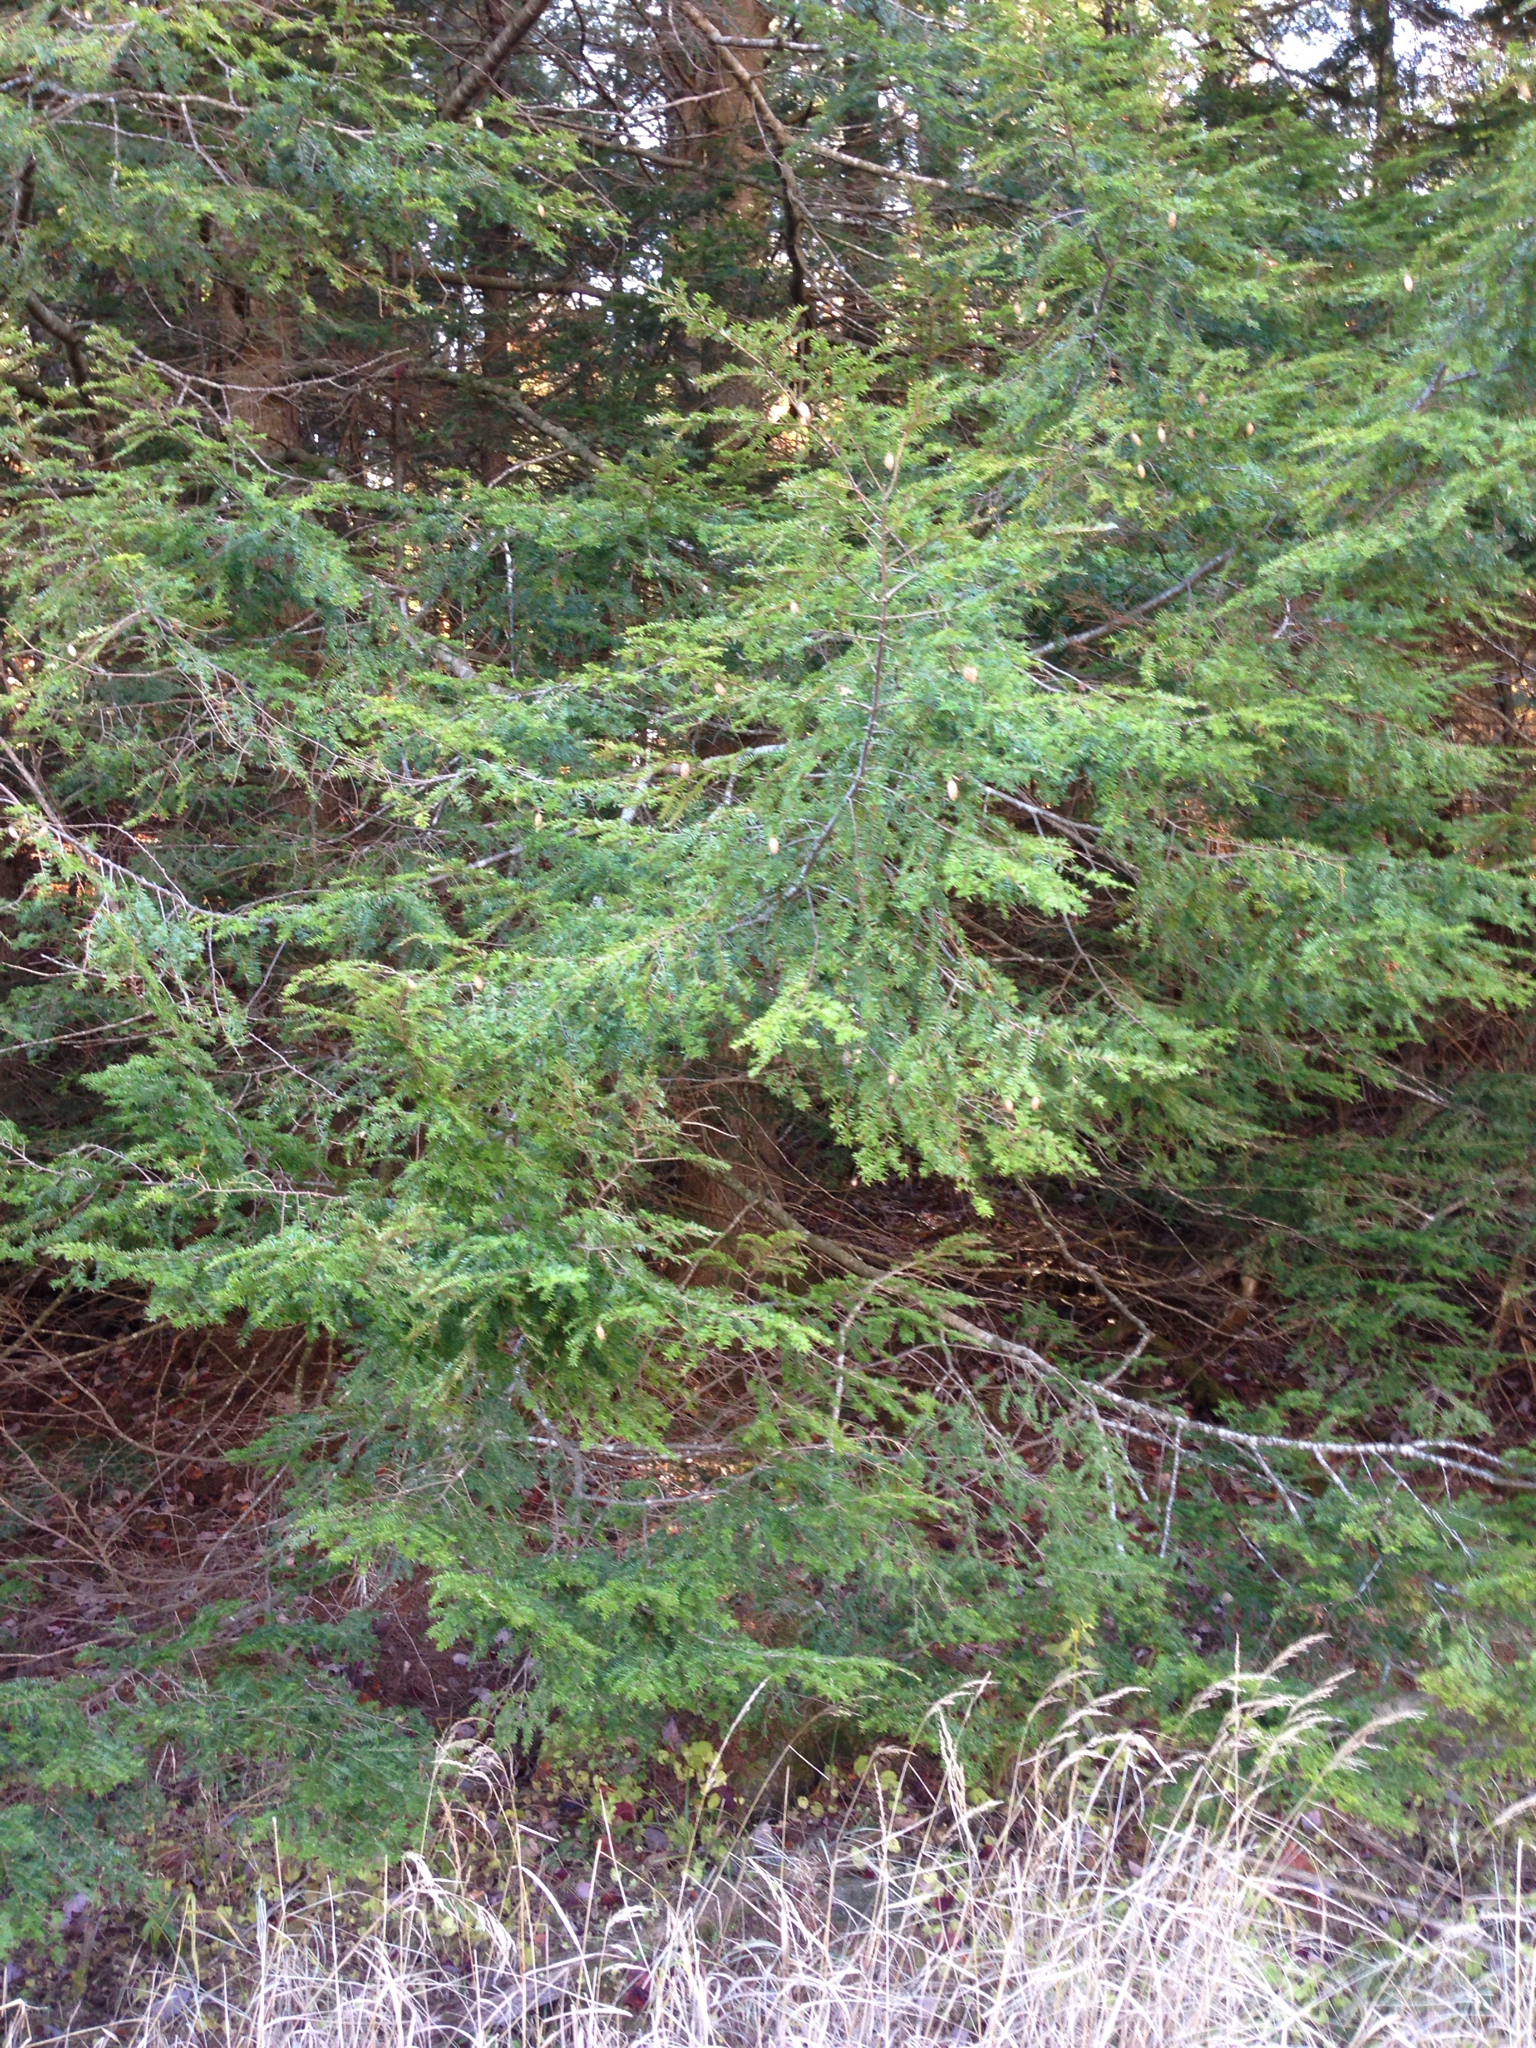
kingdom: Plantae
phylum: Tracheophyta
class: Pinopsida
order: Pinales
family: Pinaceae
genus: Tsuga
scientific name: Tsuga canadensis
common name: Eastern hemlock
